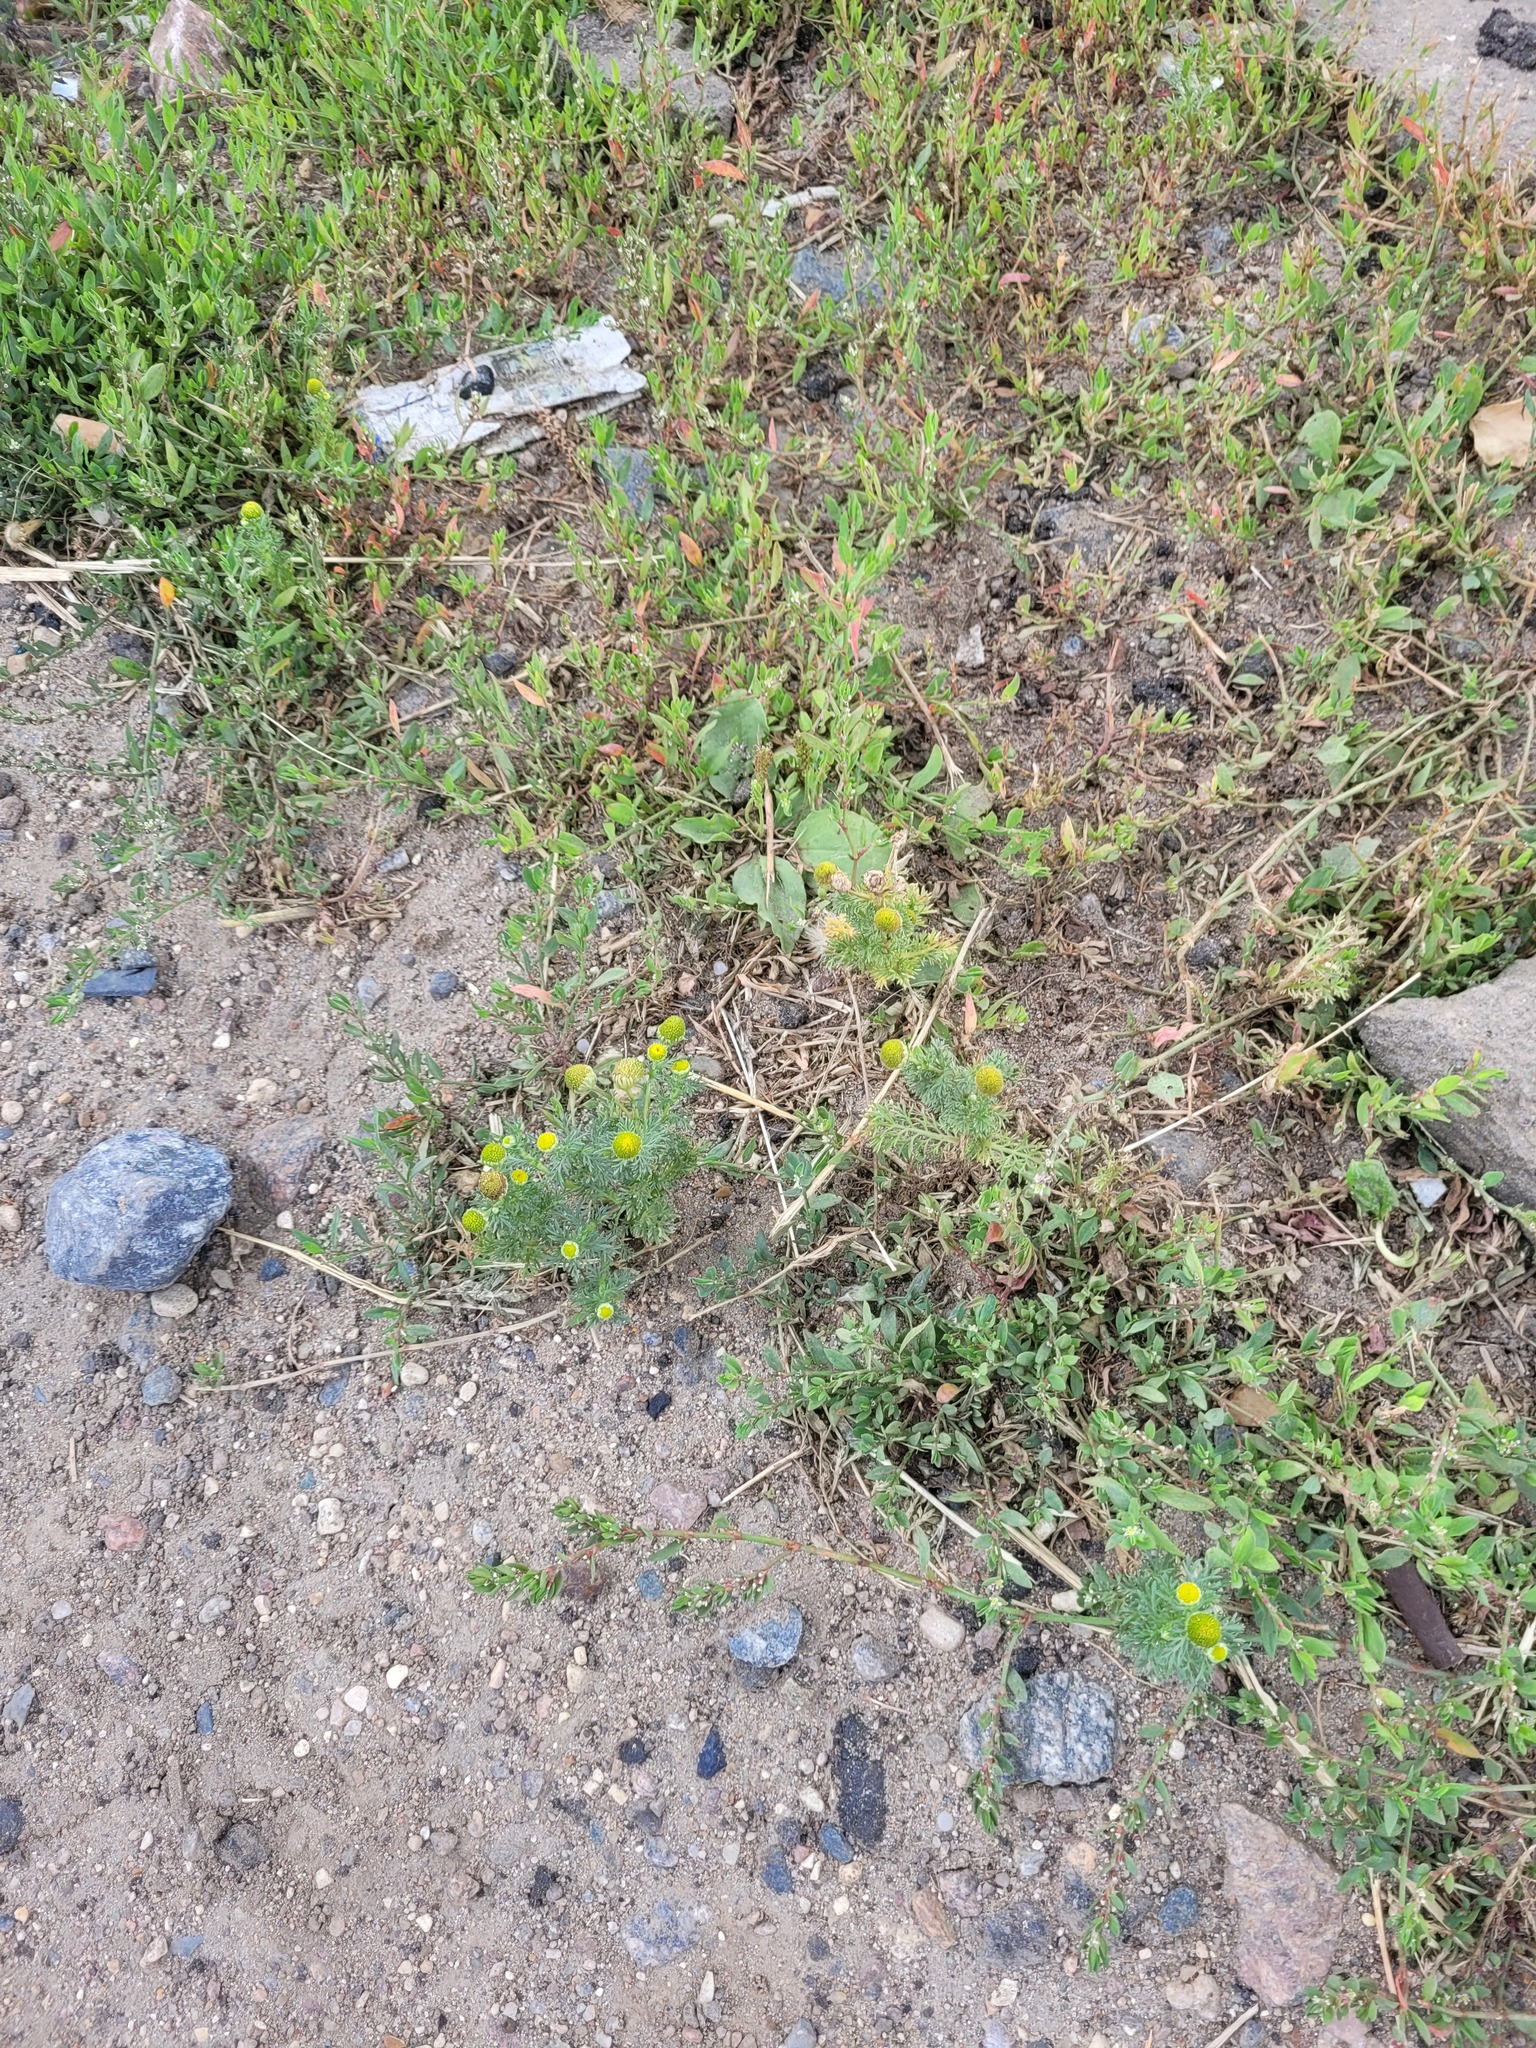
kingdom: Plantae
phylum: Tracheophyta
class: Magnoliopsida
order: Asterales
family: Asteraceae
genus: Matricaria
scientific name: Matricaria discoidea
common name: Disc mayweed
